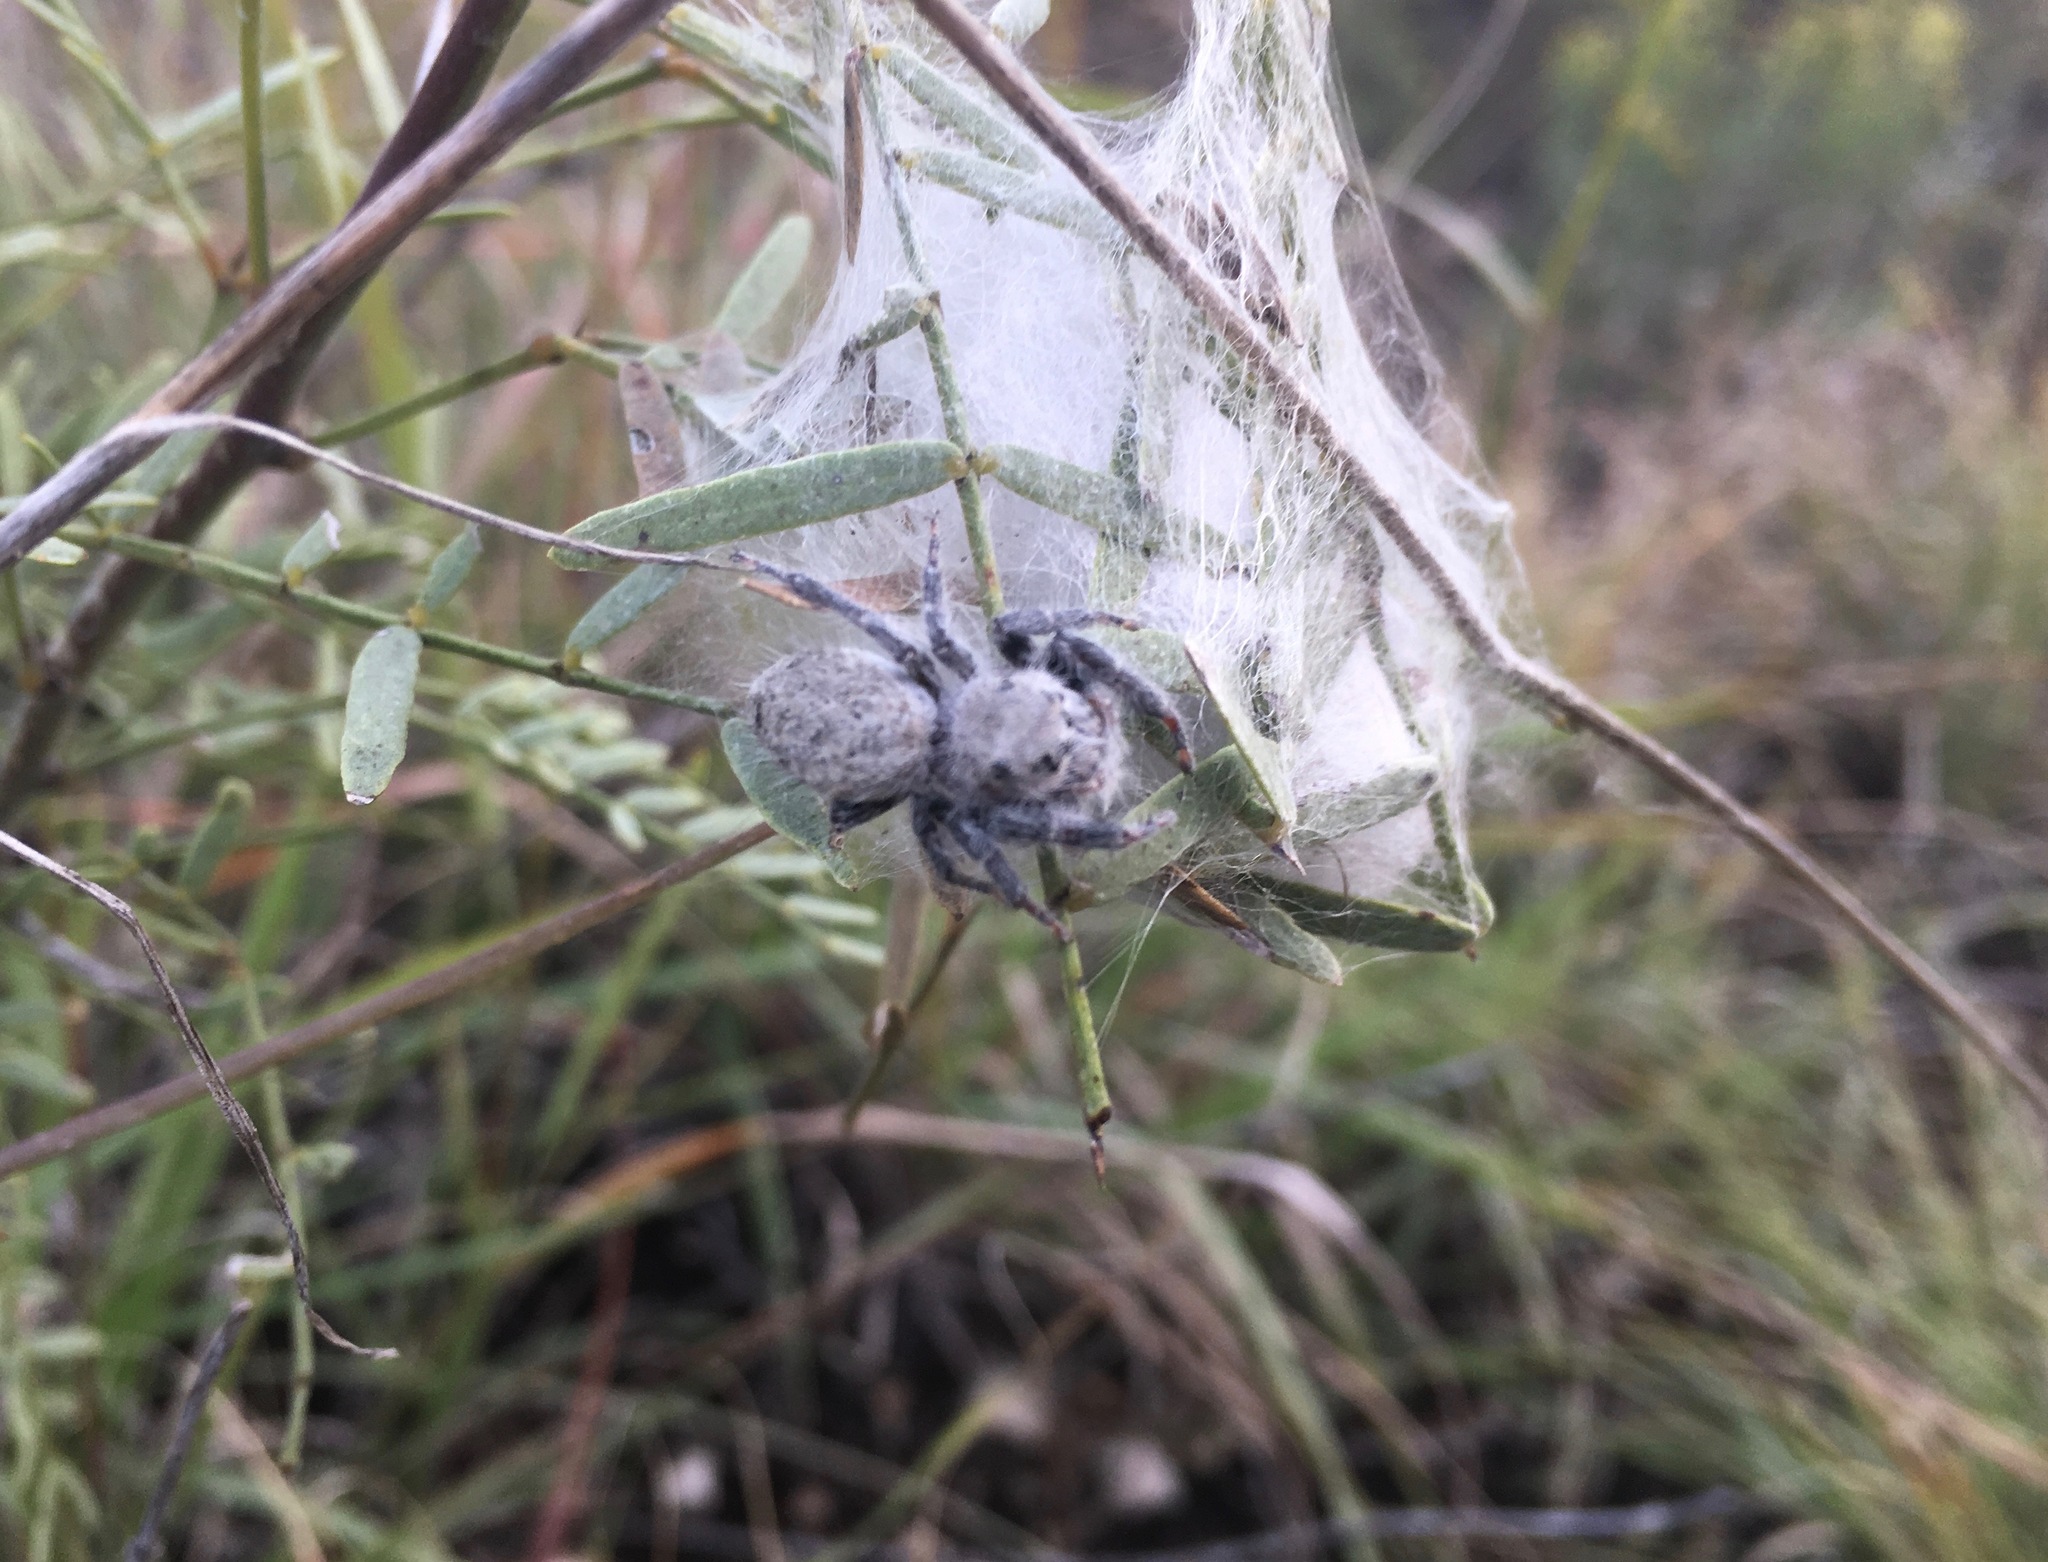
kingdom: Animalia
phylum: Arthropoda
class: Arachnida
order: Araneae
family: Salticidae
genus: Phidippus
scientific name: Phidippus octopunctatus
